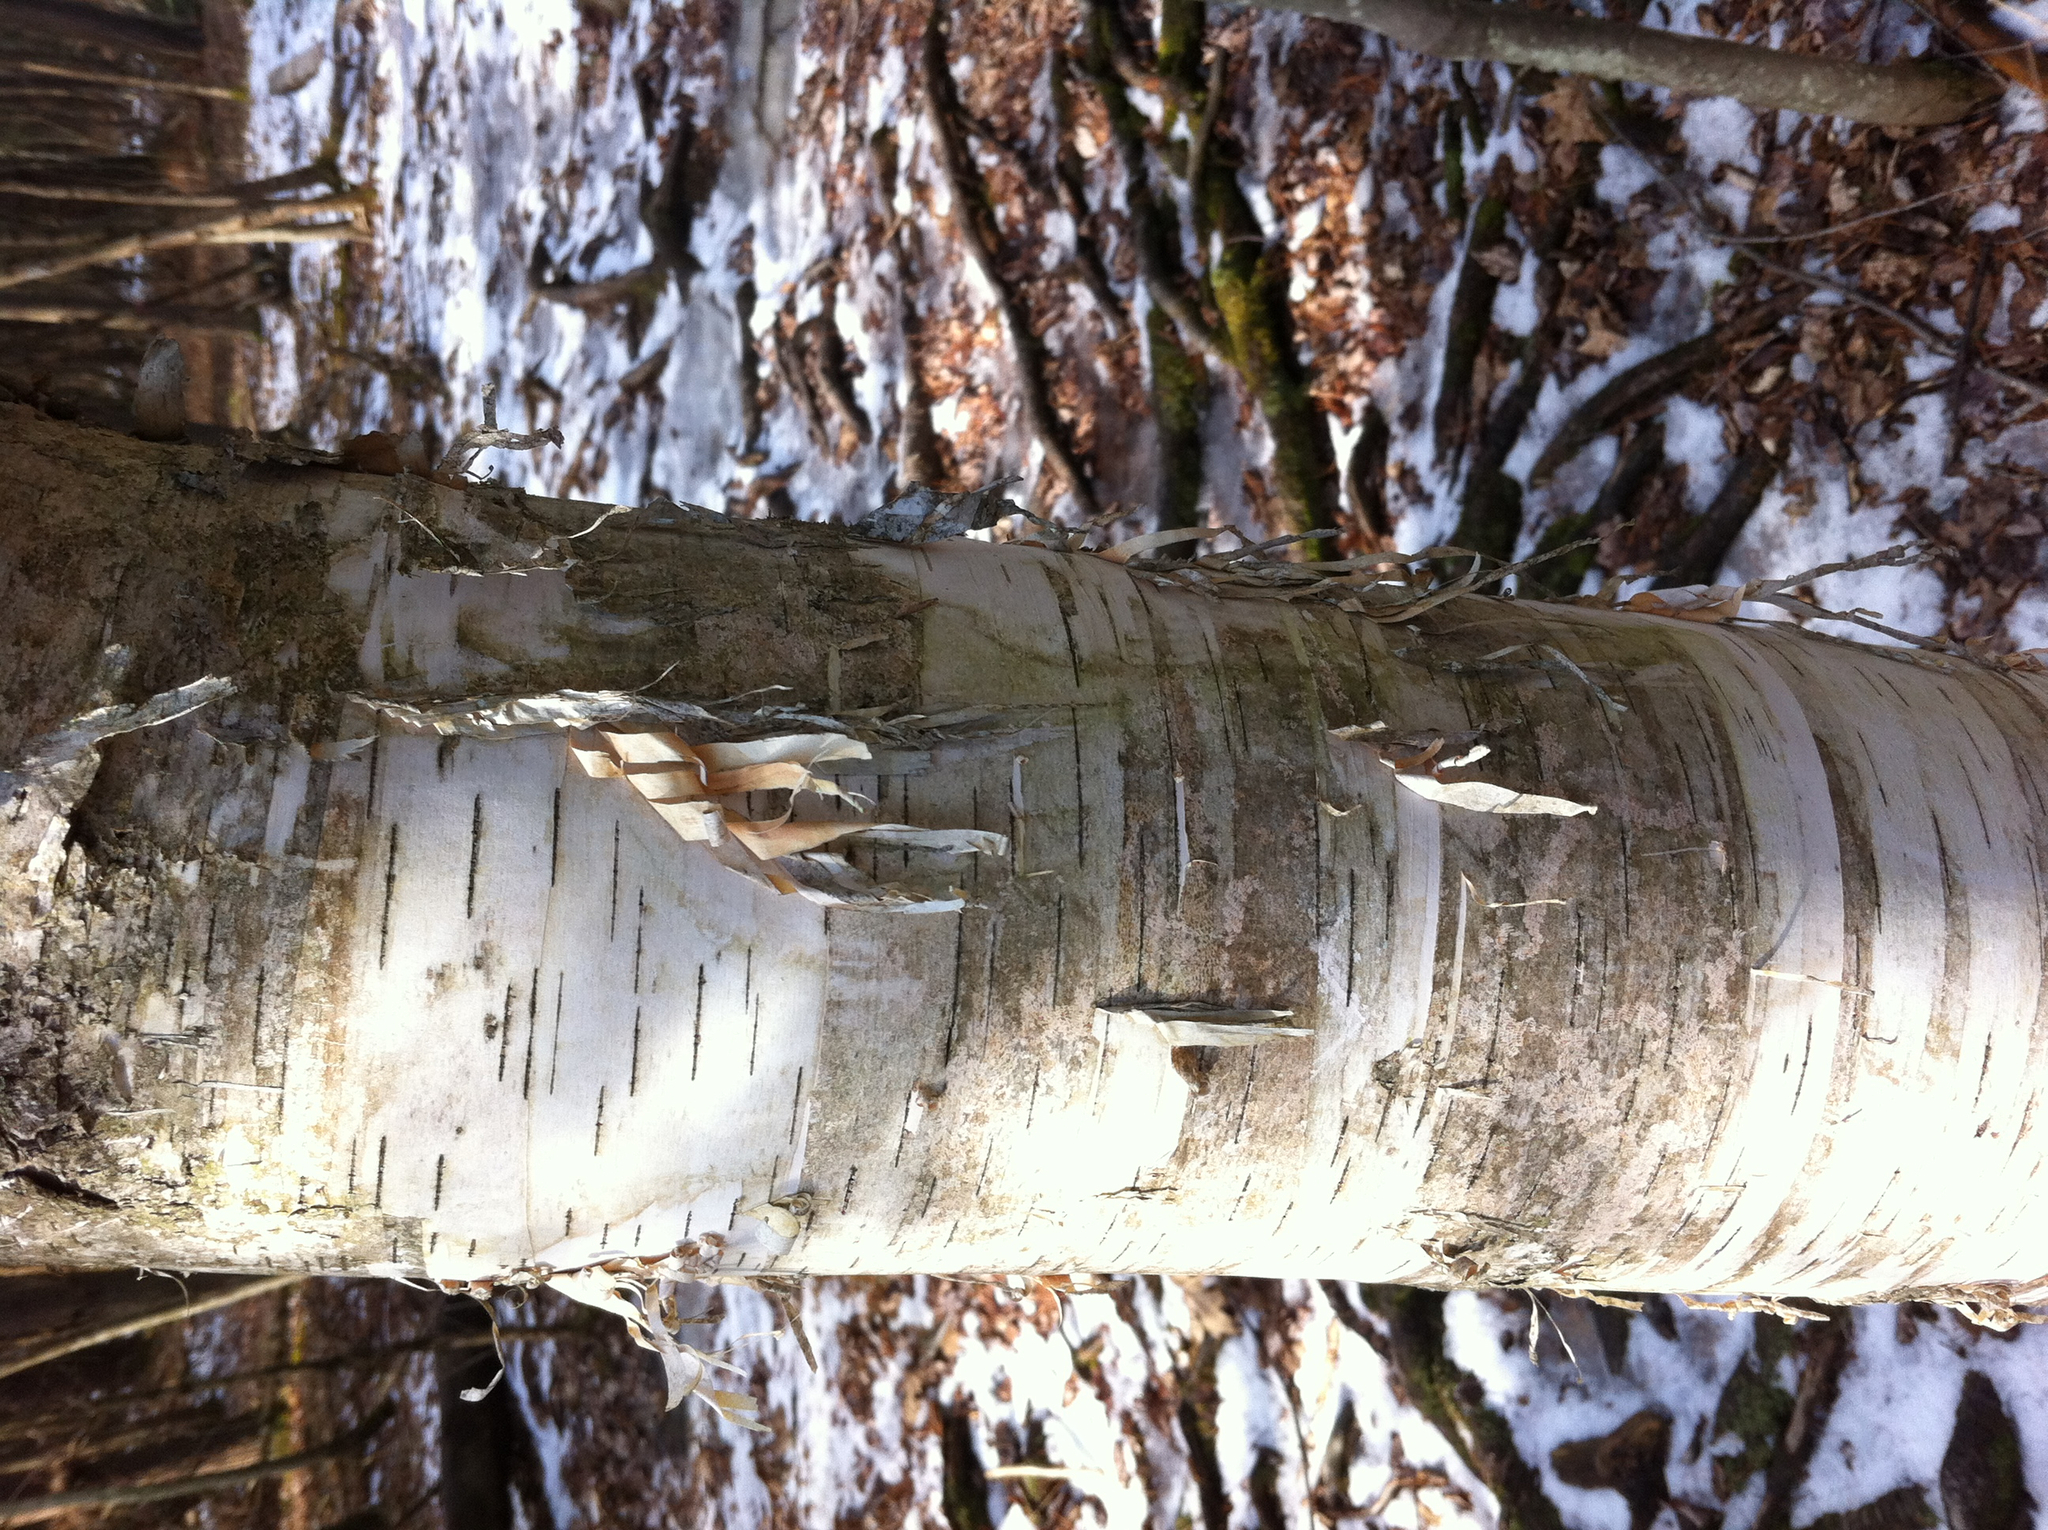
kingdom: Plantae
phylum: Tracheophyta
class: Magnoliopsida
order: Fagales
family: Betulaceae
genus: Betula
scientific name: Betula papyrifera
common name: Paper birch
